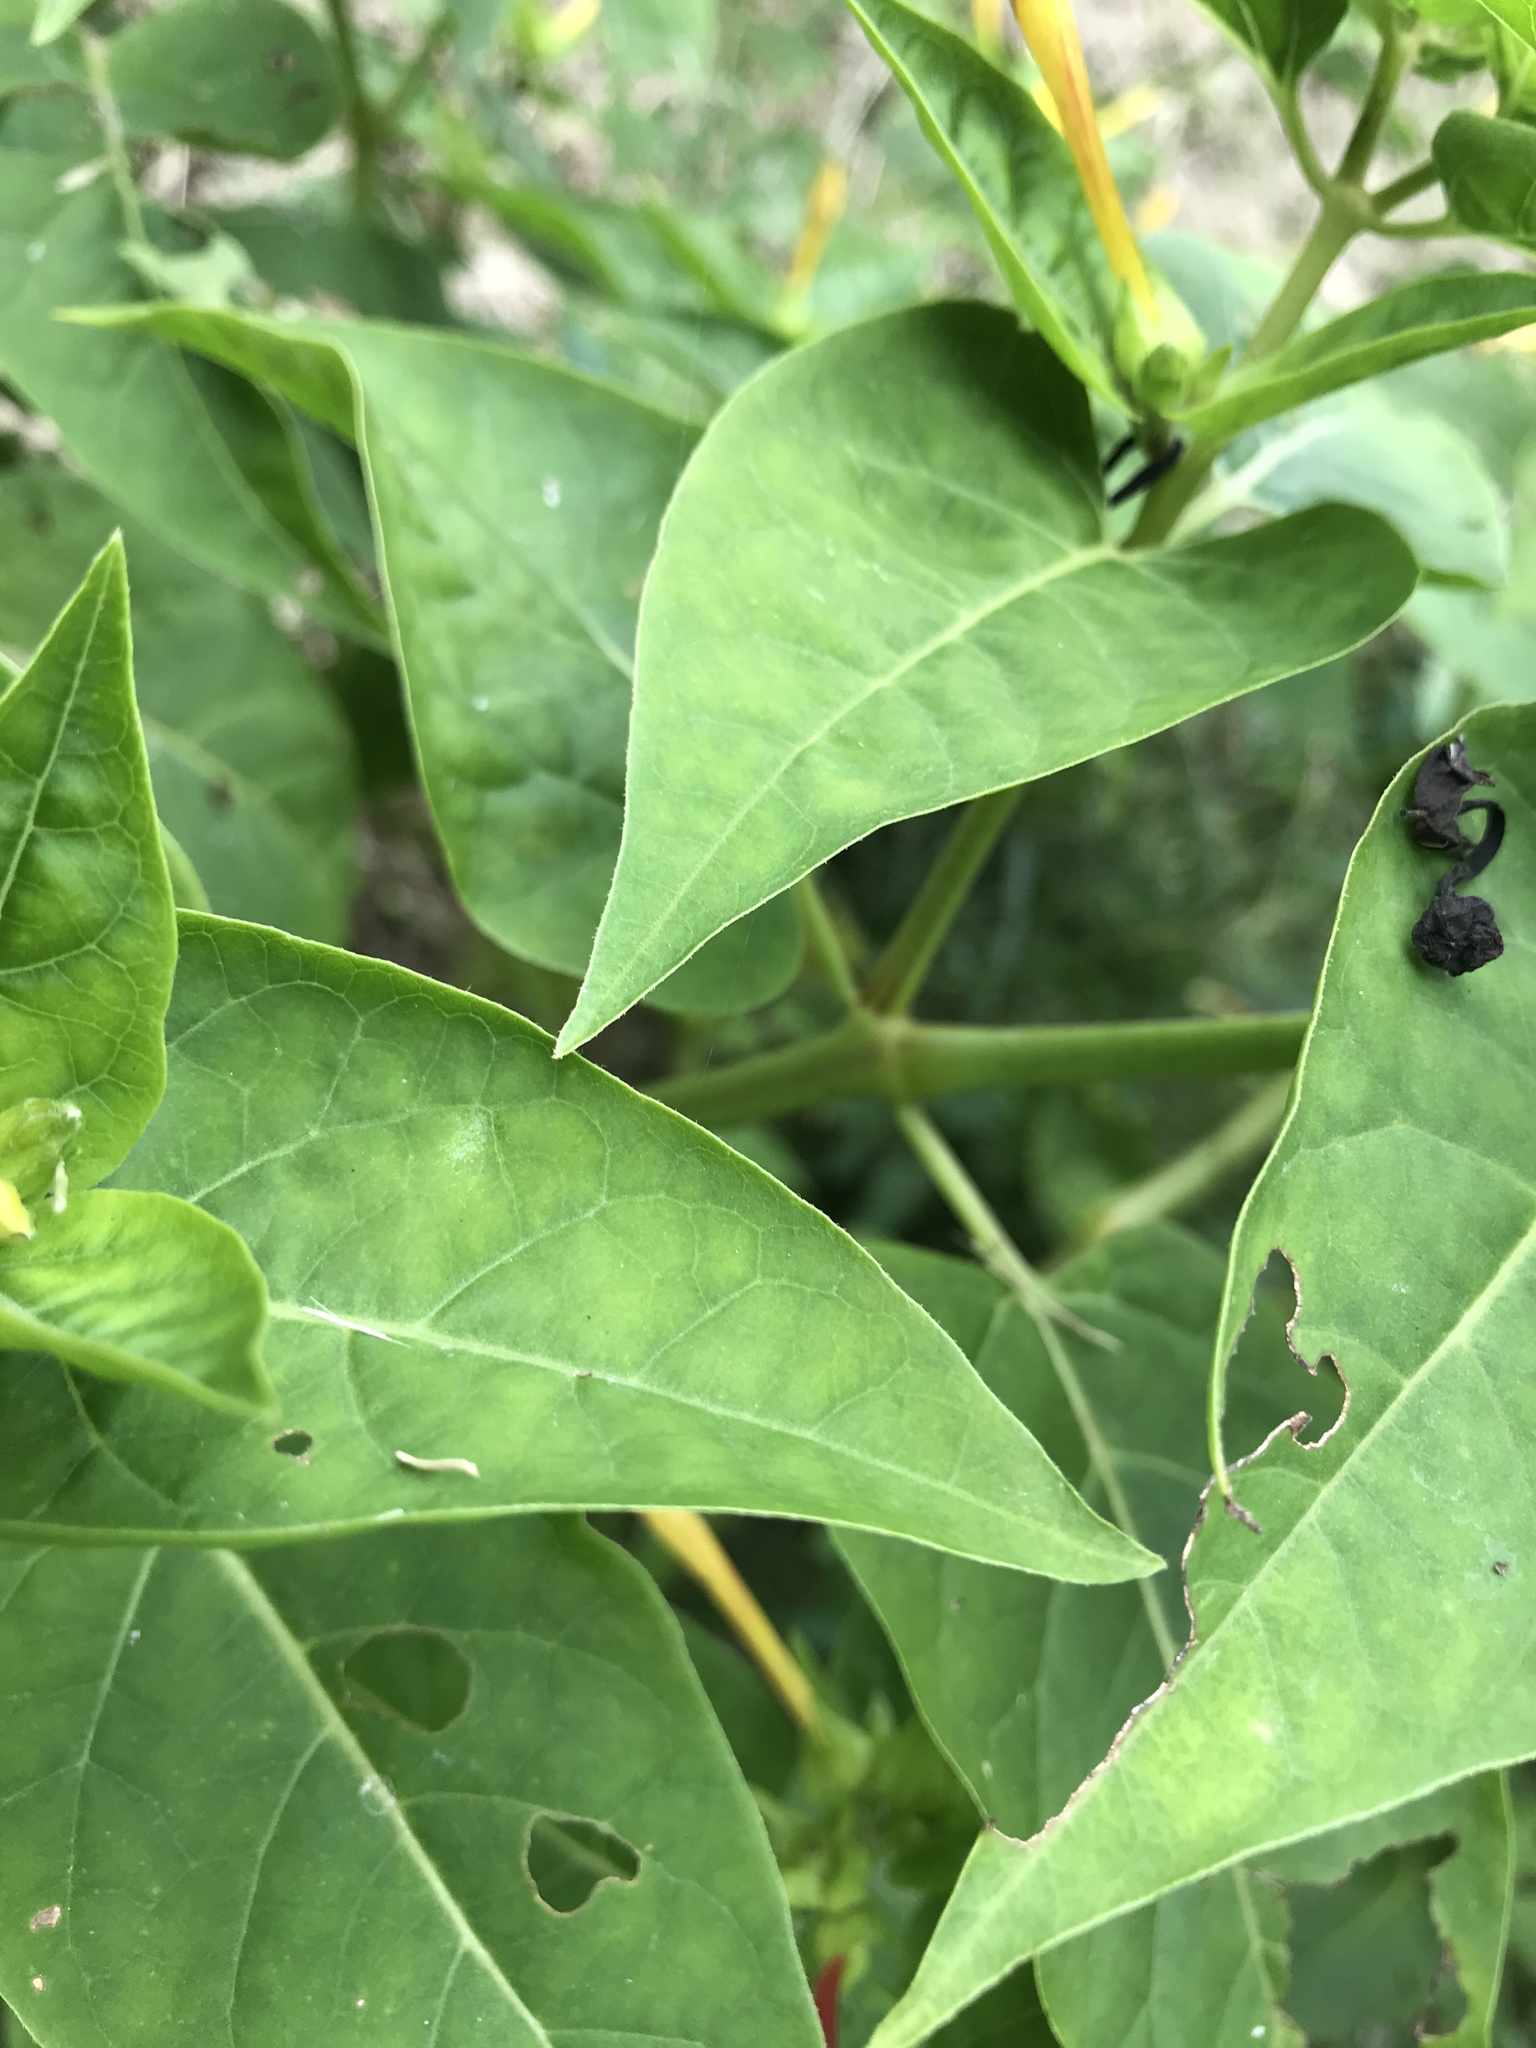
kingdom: Plantae
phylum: Tracheophyta
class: Magnoliopsida
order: Caryophyllales
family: Nyctaginaceae
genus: Mirabilis
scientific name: Mirabilis jalapa
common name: Marvel-of-peru
